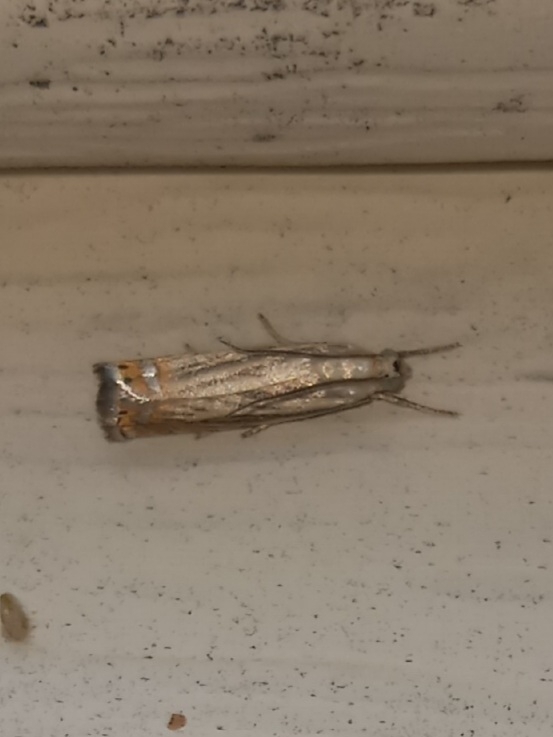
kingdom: Animalia
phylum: Arthropoda
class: Insecta
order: Lepidoptera
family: Crambidae
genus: Chrysoteuchia
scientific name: Chrysoteuchia topiarius
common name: Topiary grass-veneer
